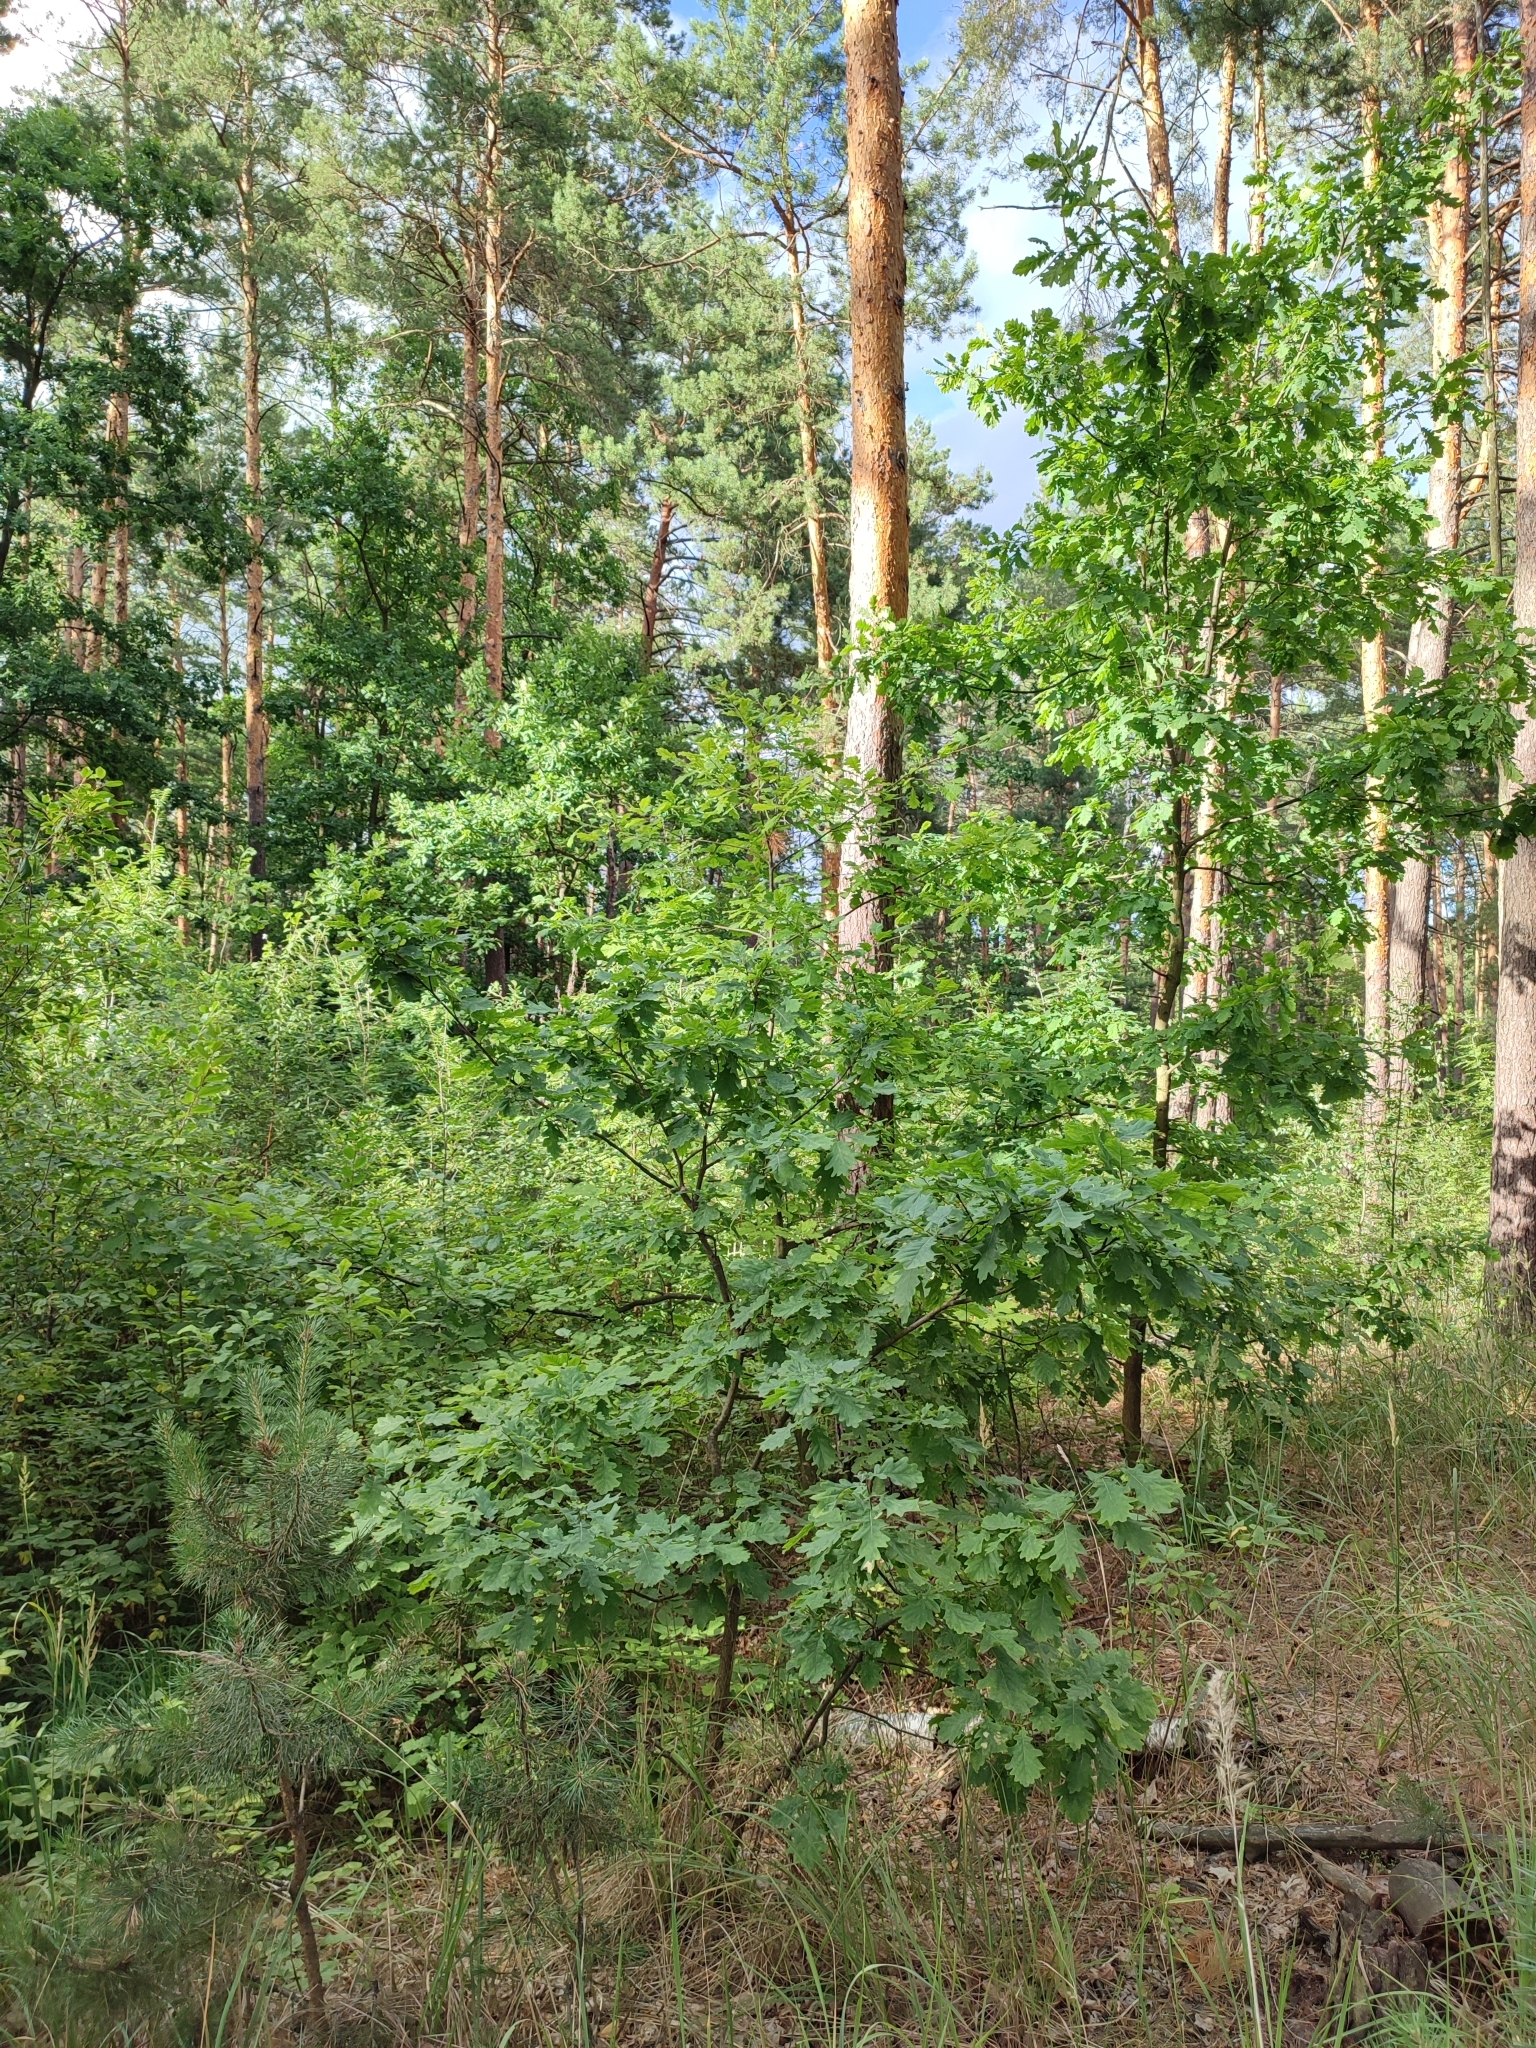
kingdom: Plantae
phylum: Tracheophyta
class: Magnoliopsida
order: Fagales
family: Fagaceae
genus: Quercus
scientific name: Quercus robur
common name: Pedunculate oak
